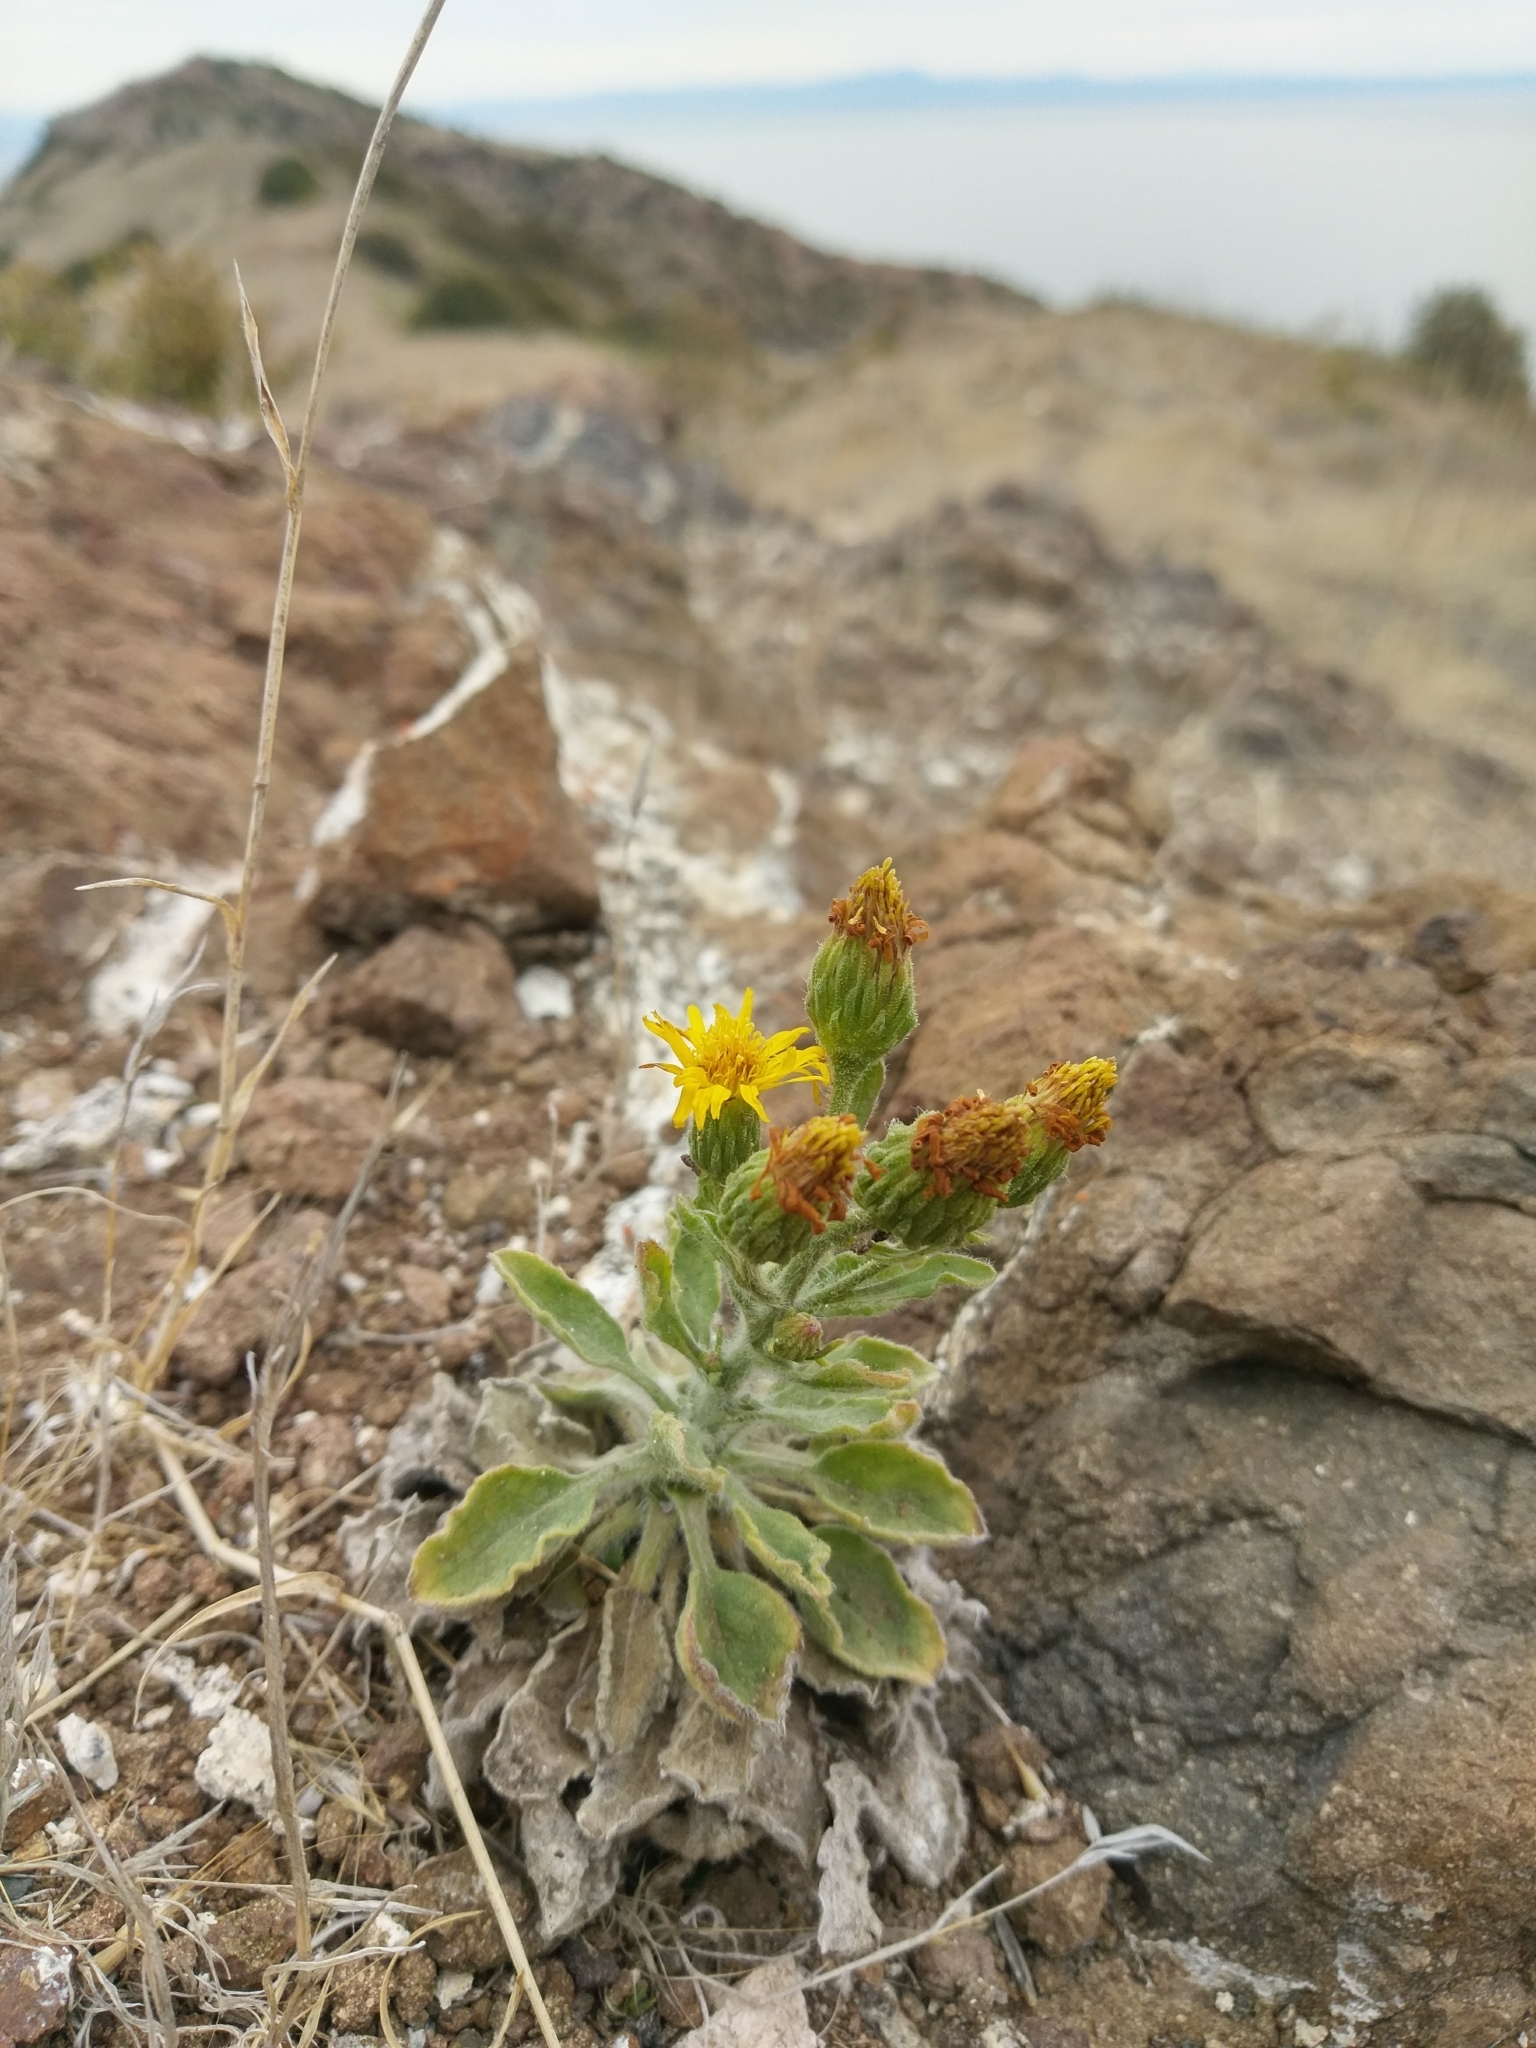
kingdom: Plantae
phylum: Tracheophyta
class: Magnoliopsida
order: Asterales
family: Asteraceae
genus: Heterotheca
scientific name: Heterotheca grandiflora
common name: Telegraphweed
